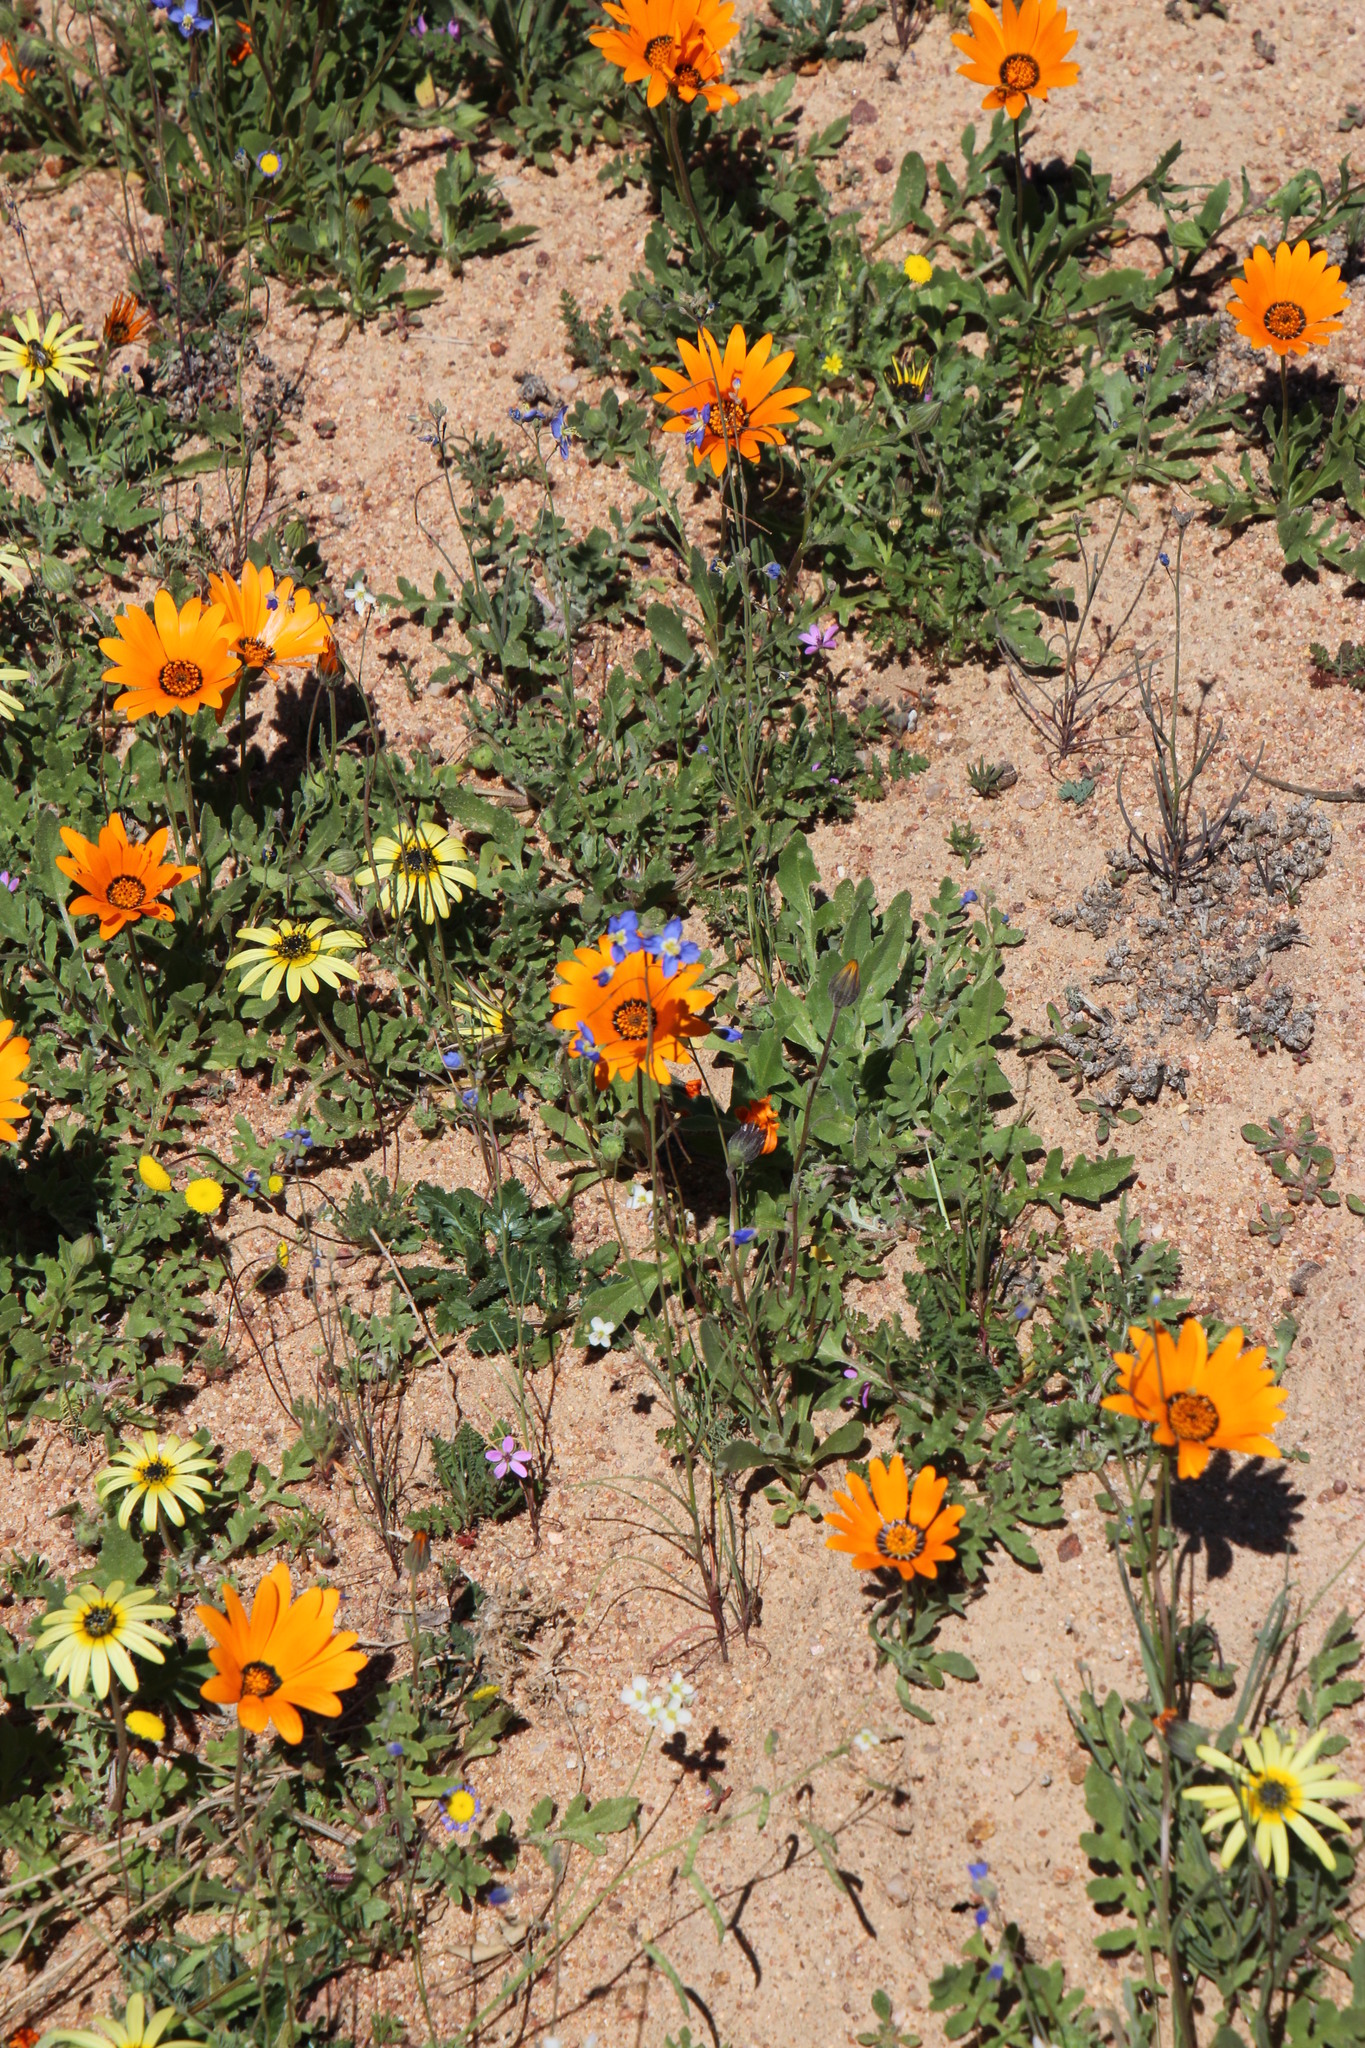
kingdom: Plantae
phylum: Tracheophyta
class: Magnoliopsida
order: Brassicales
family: Brassicaceae
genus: Heliophila
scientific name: Heliophila seselifolia
